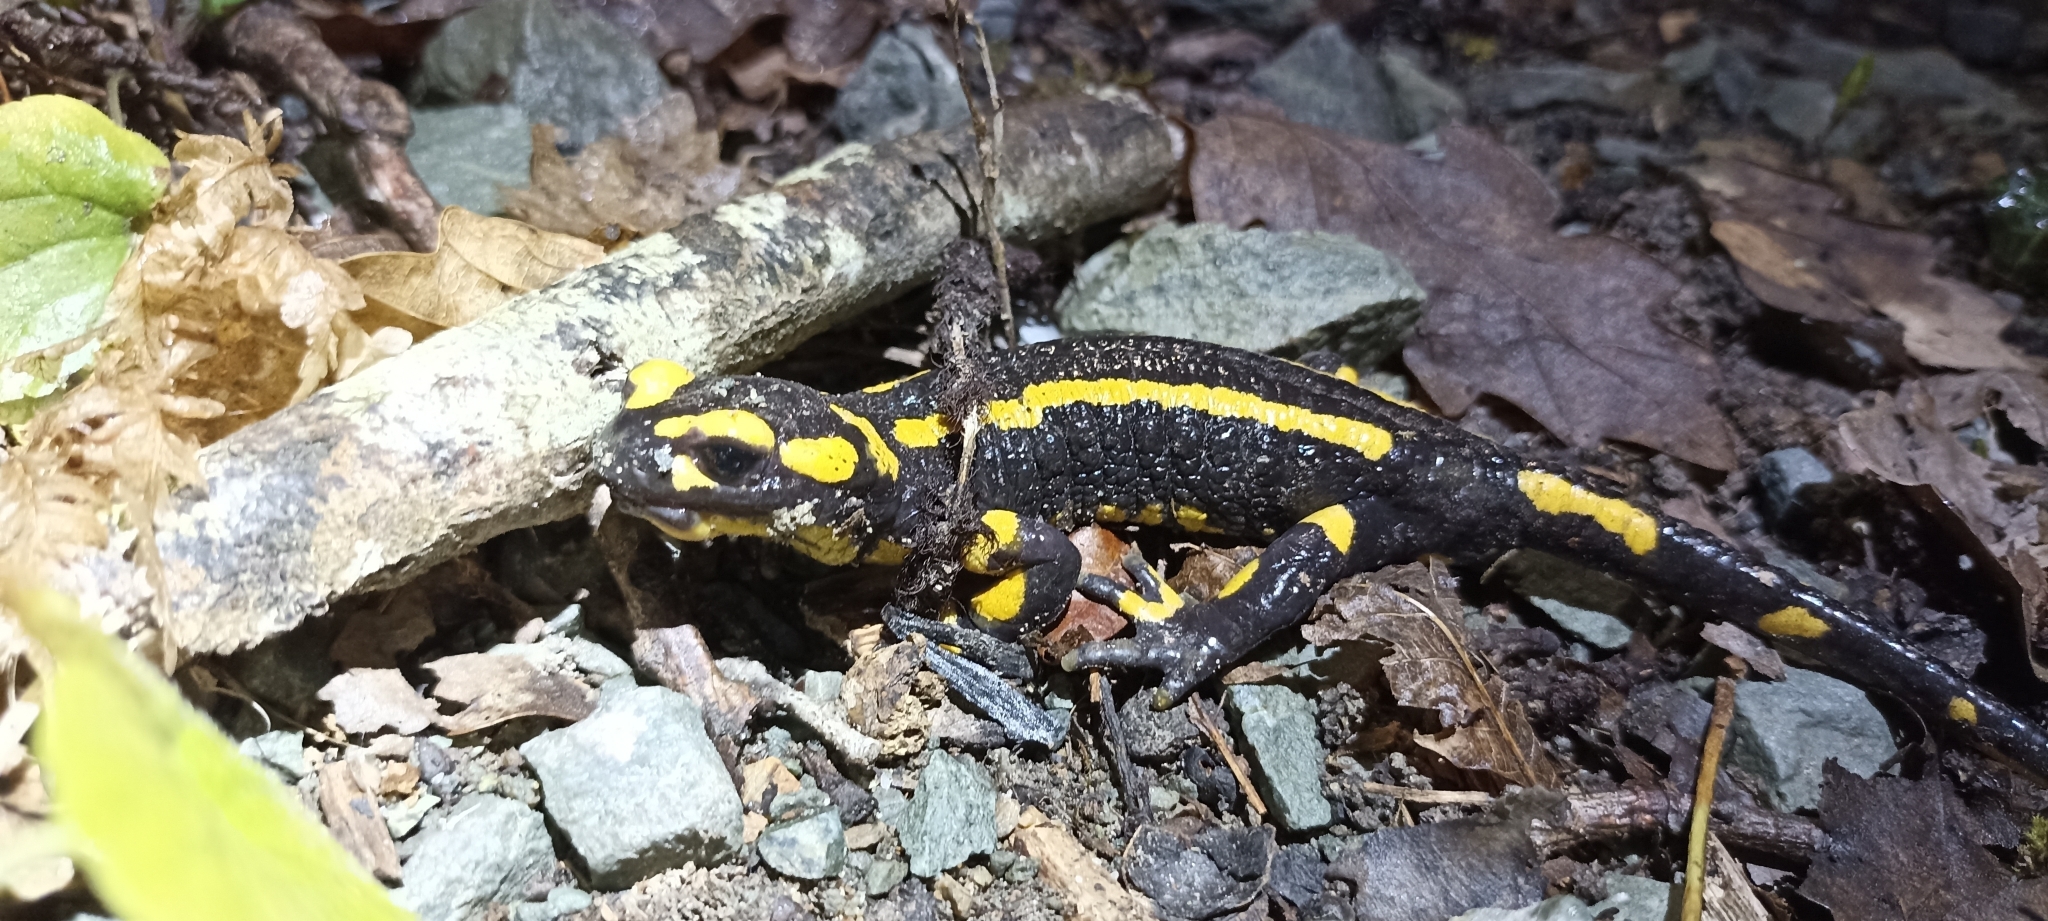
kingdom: Animalia
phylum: Chordata
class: Amphibia
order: Caudata
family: Salamandridae
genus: Salamandra
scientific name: Salamandra salamandra
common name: Fire salamander
